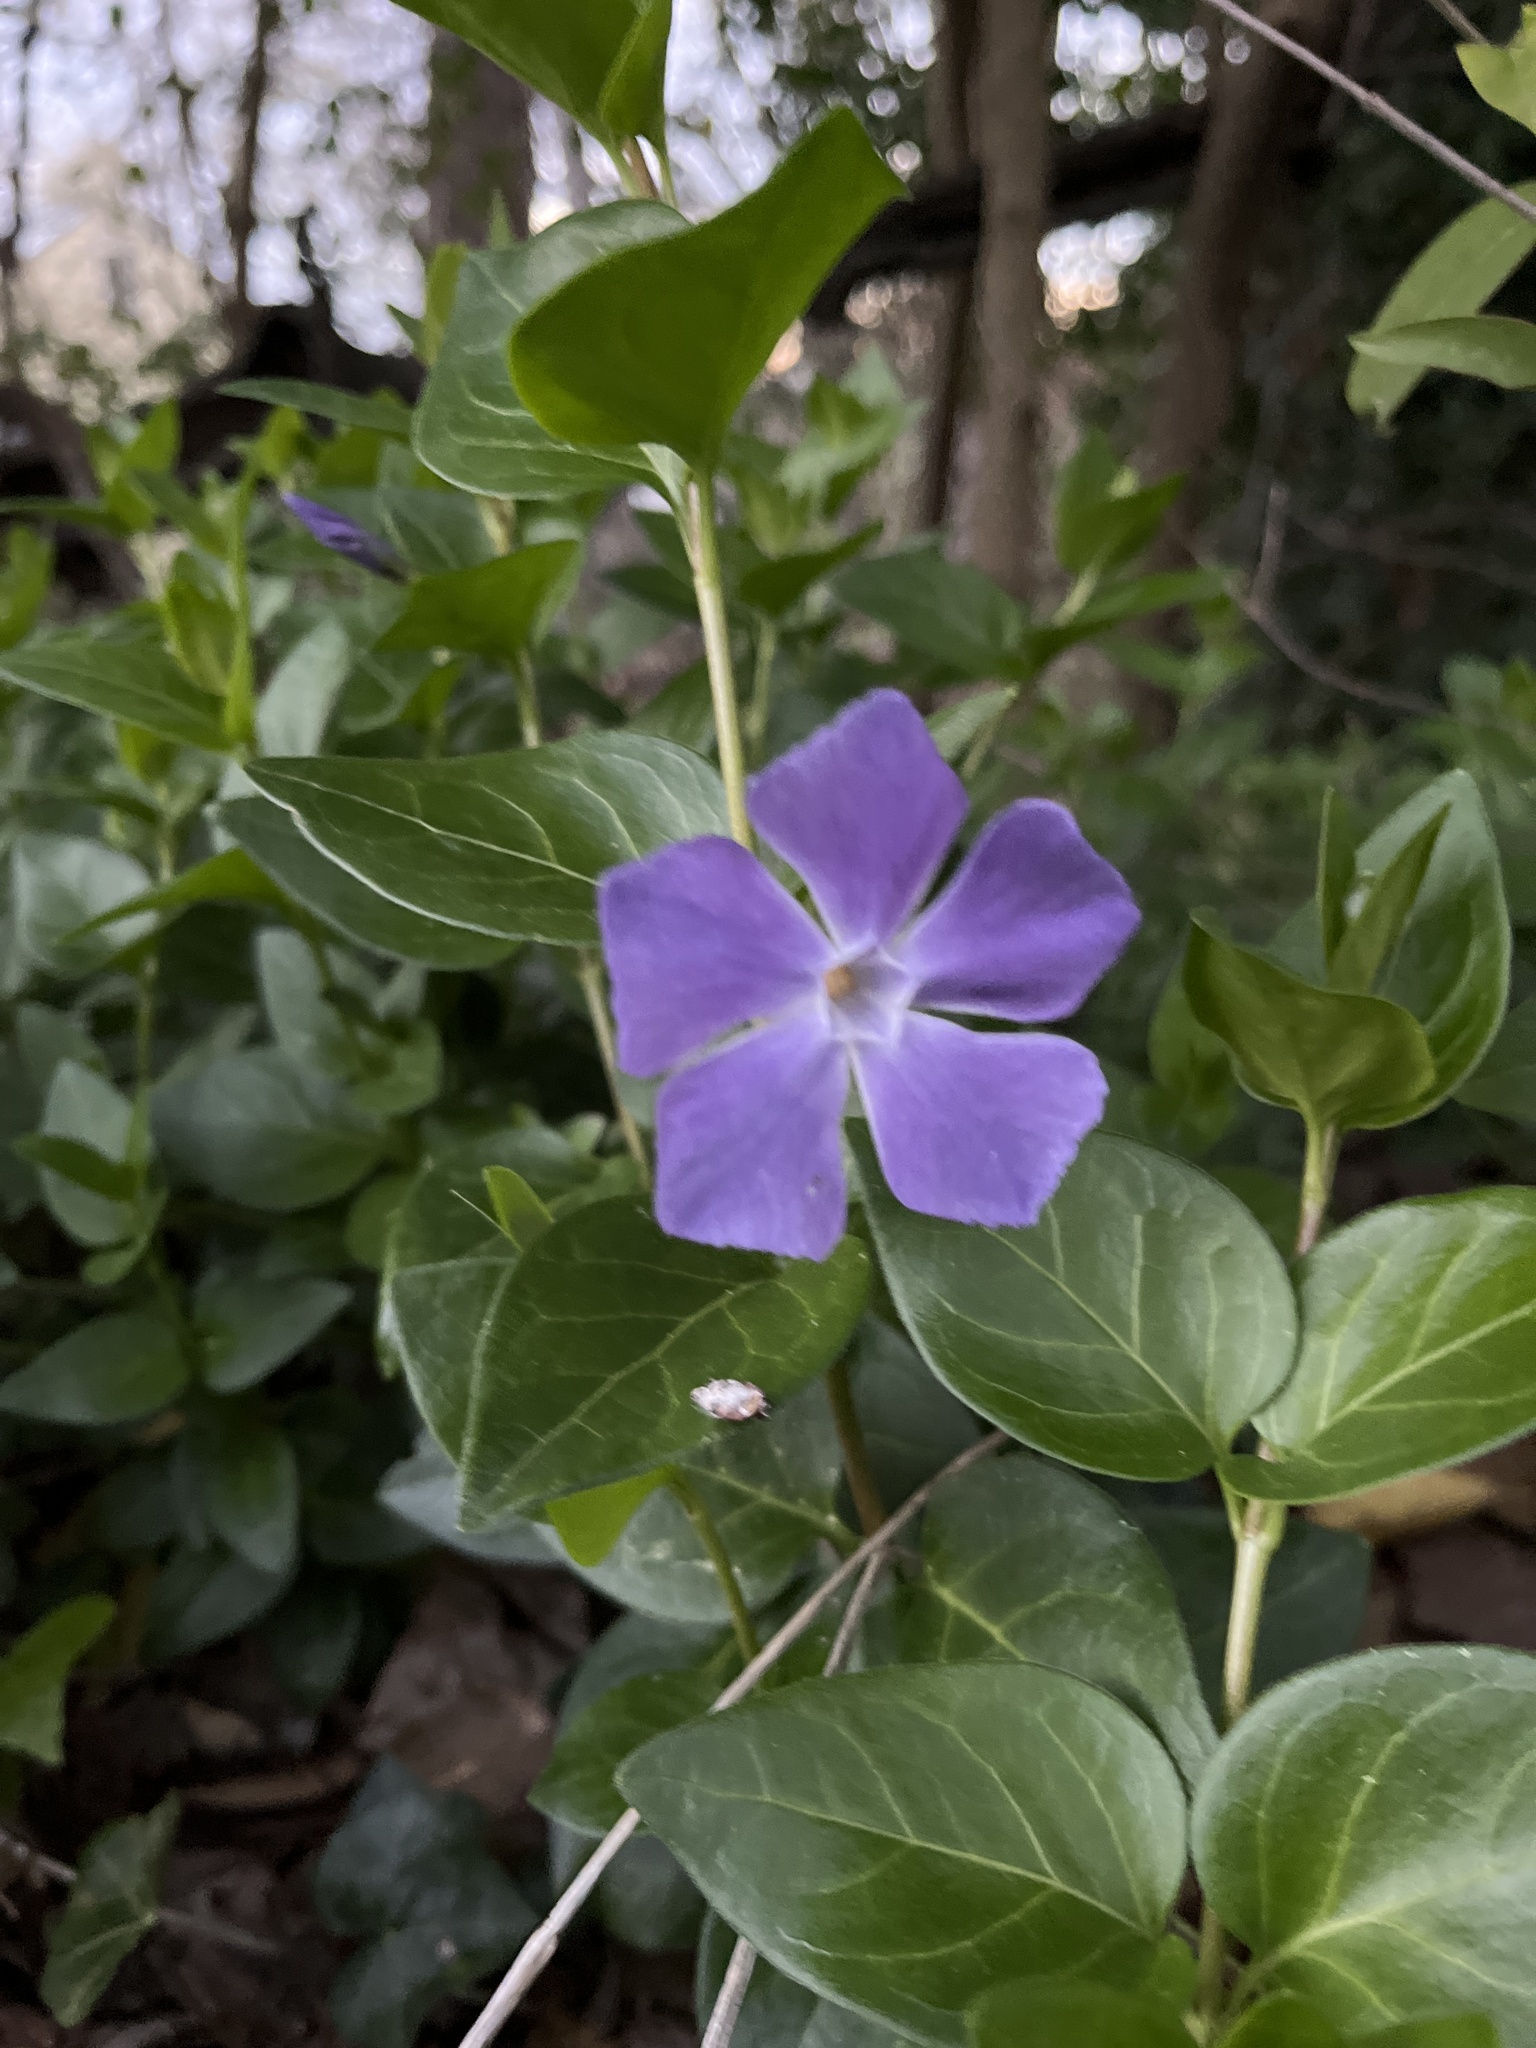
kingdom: Plantae
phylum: Tracheophyta
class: Magnoliopsida
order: Gentianales
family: Apocynaceae
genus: Vinca
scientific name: Vinca major
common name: Greater periwinkle
